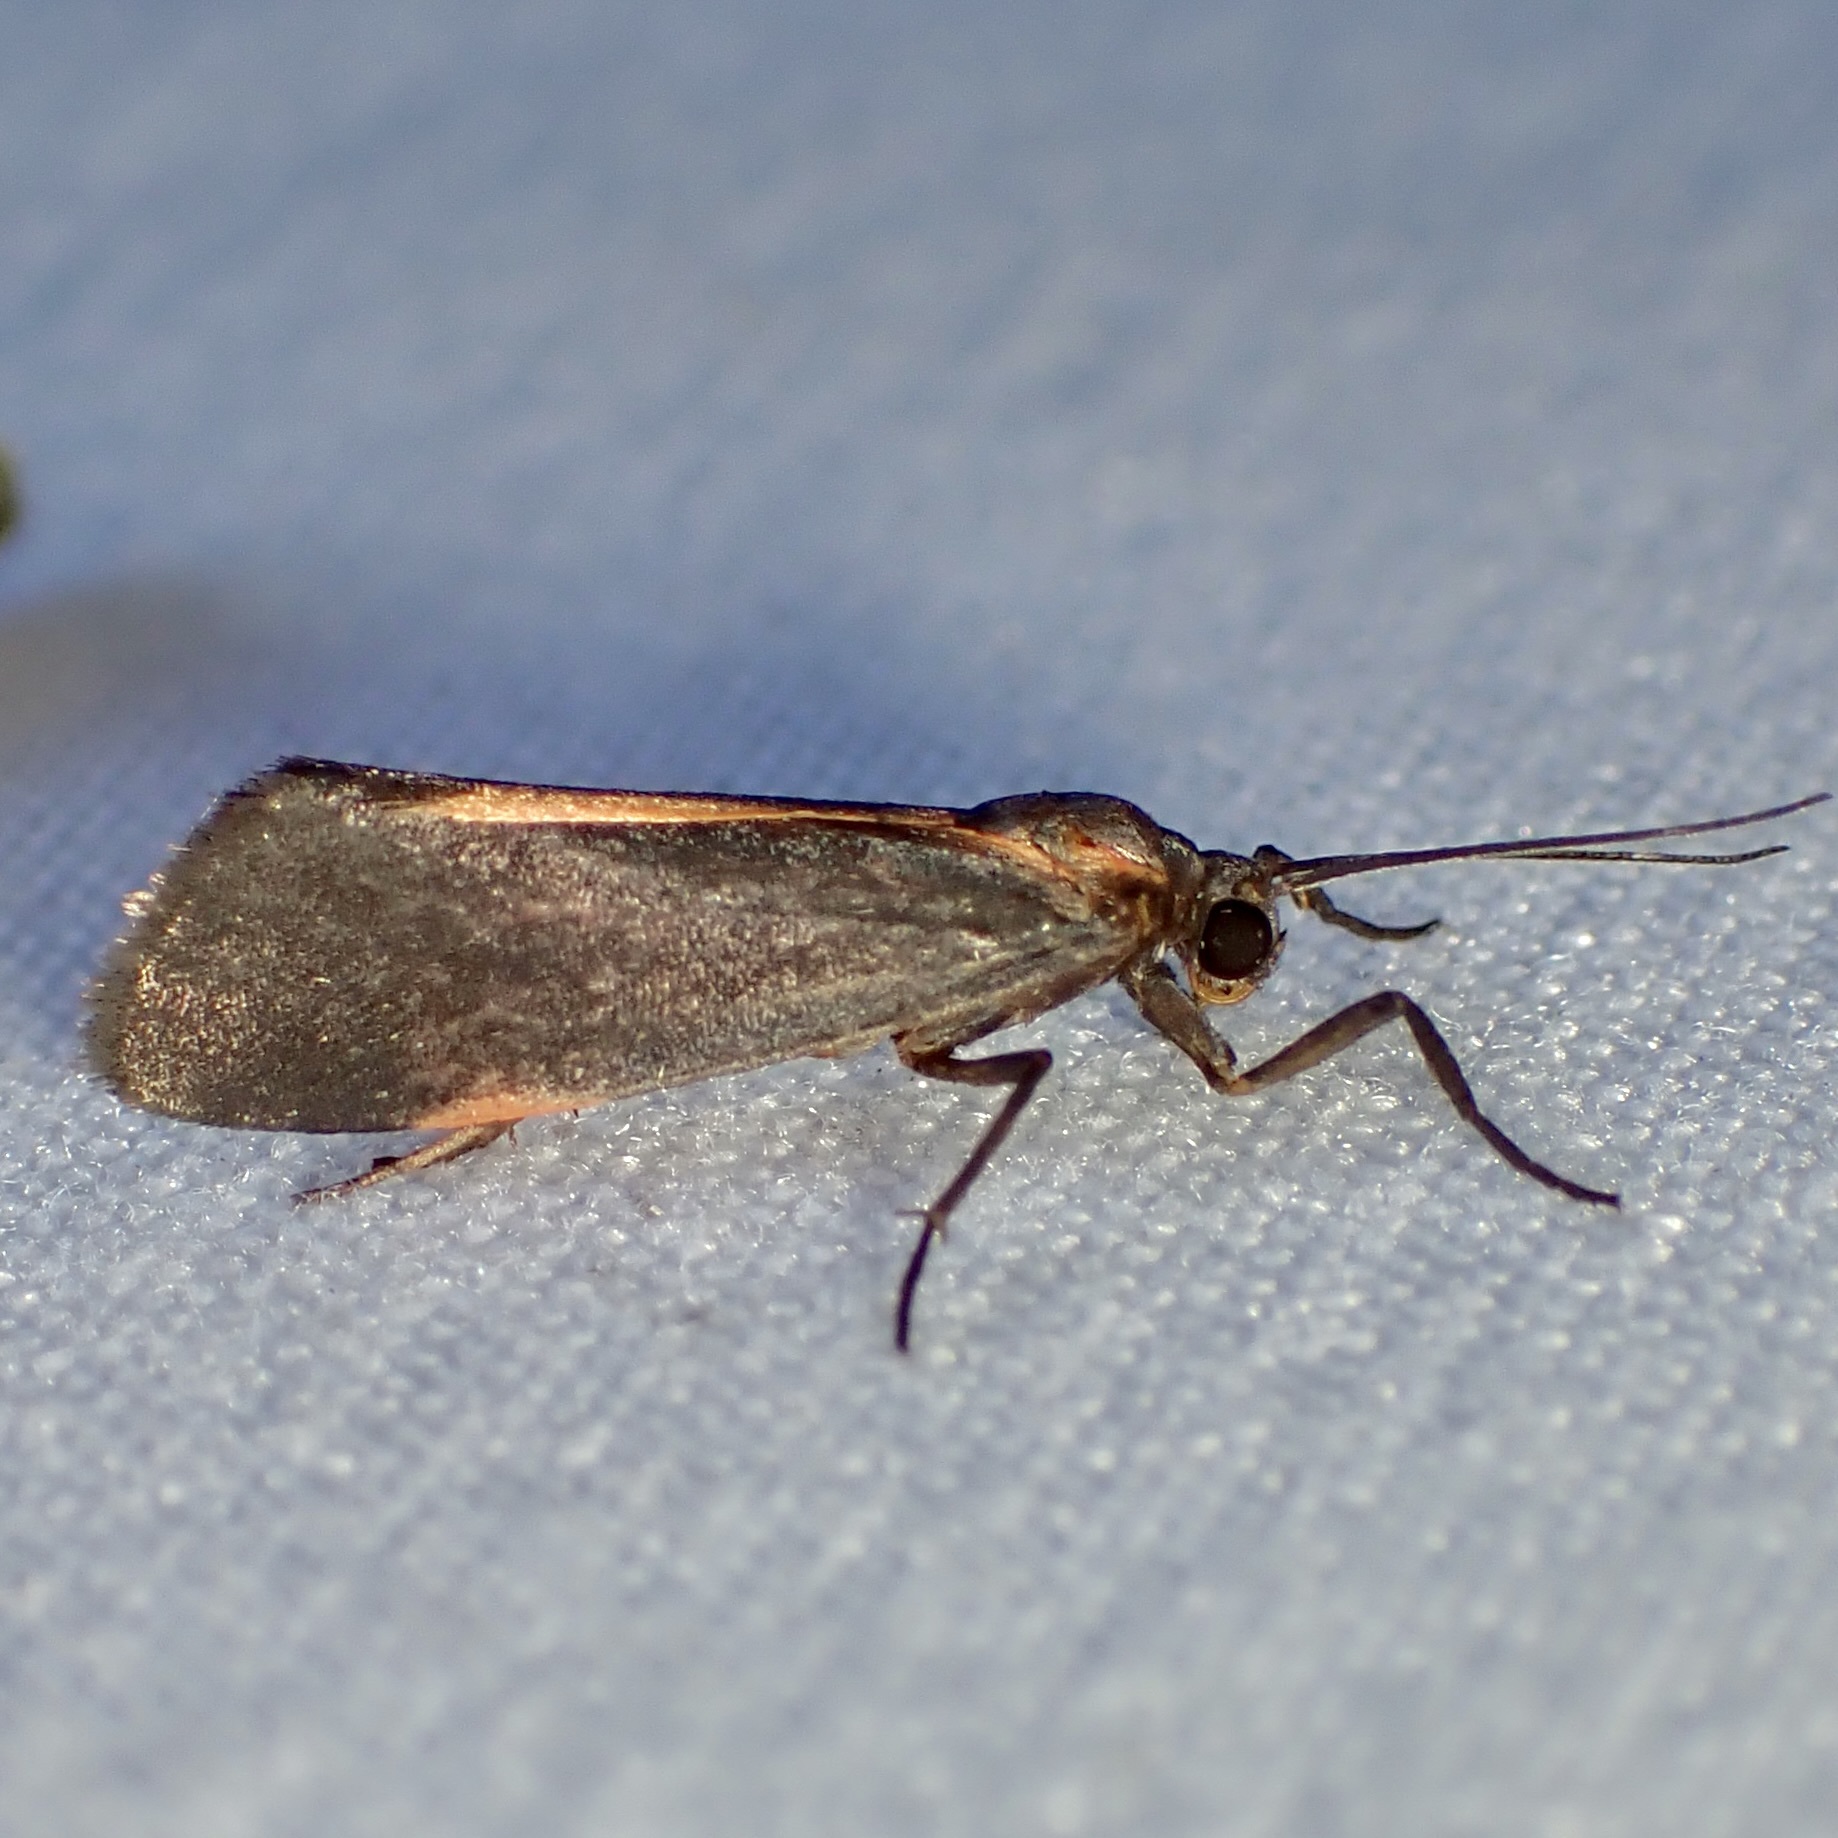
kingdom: Animalia
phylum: Arthropoda
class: Insecta
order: Lepidoptera
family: Erebidae
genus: Cisthene
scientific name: Cisthene juanita
